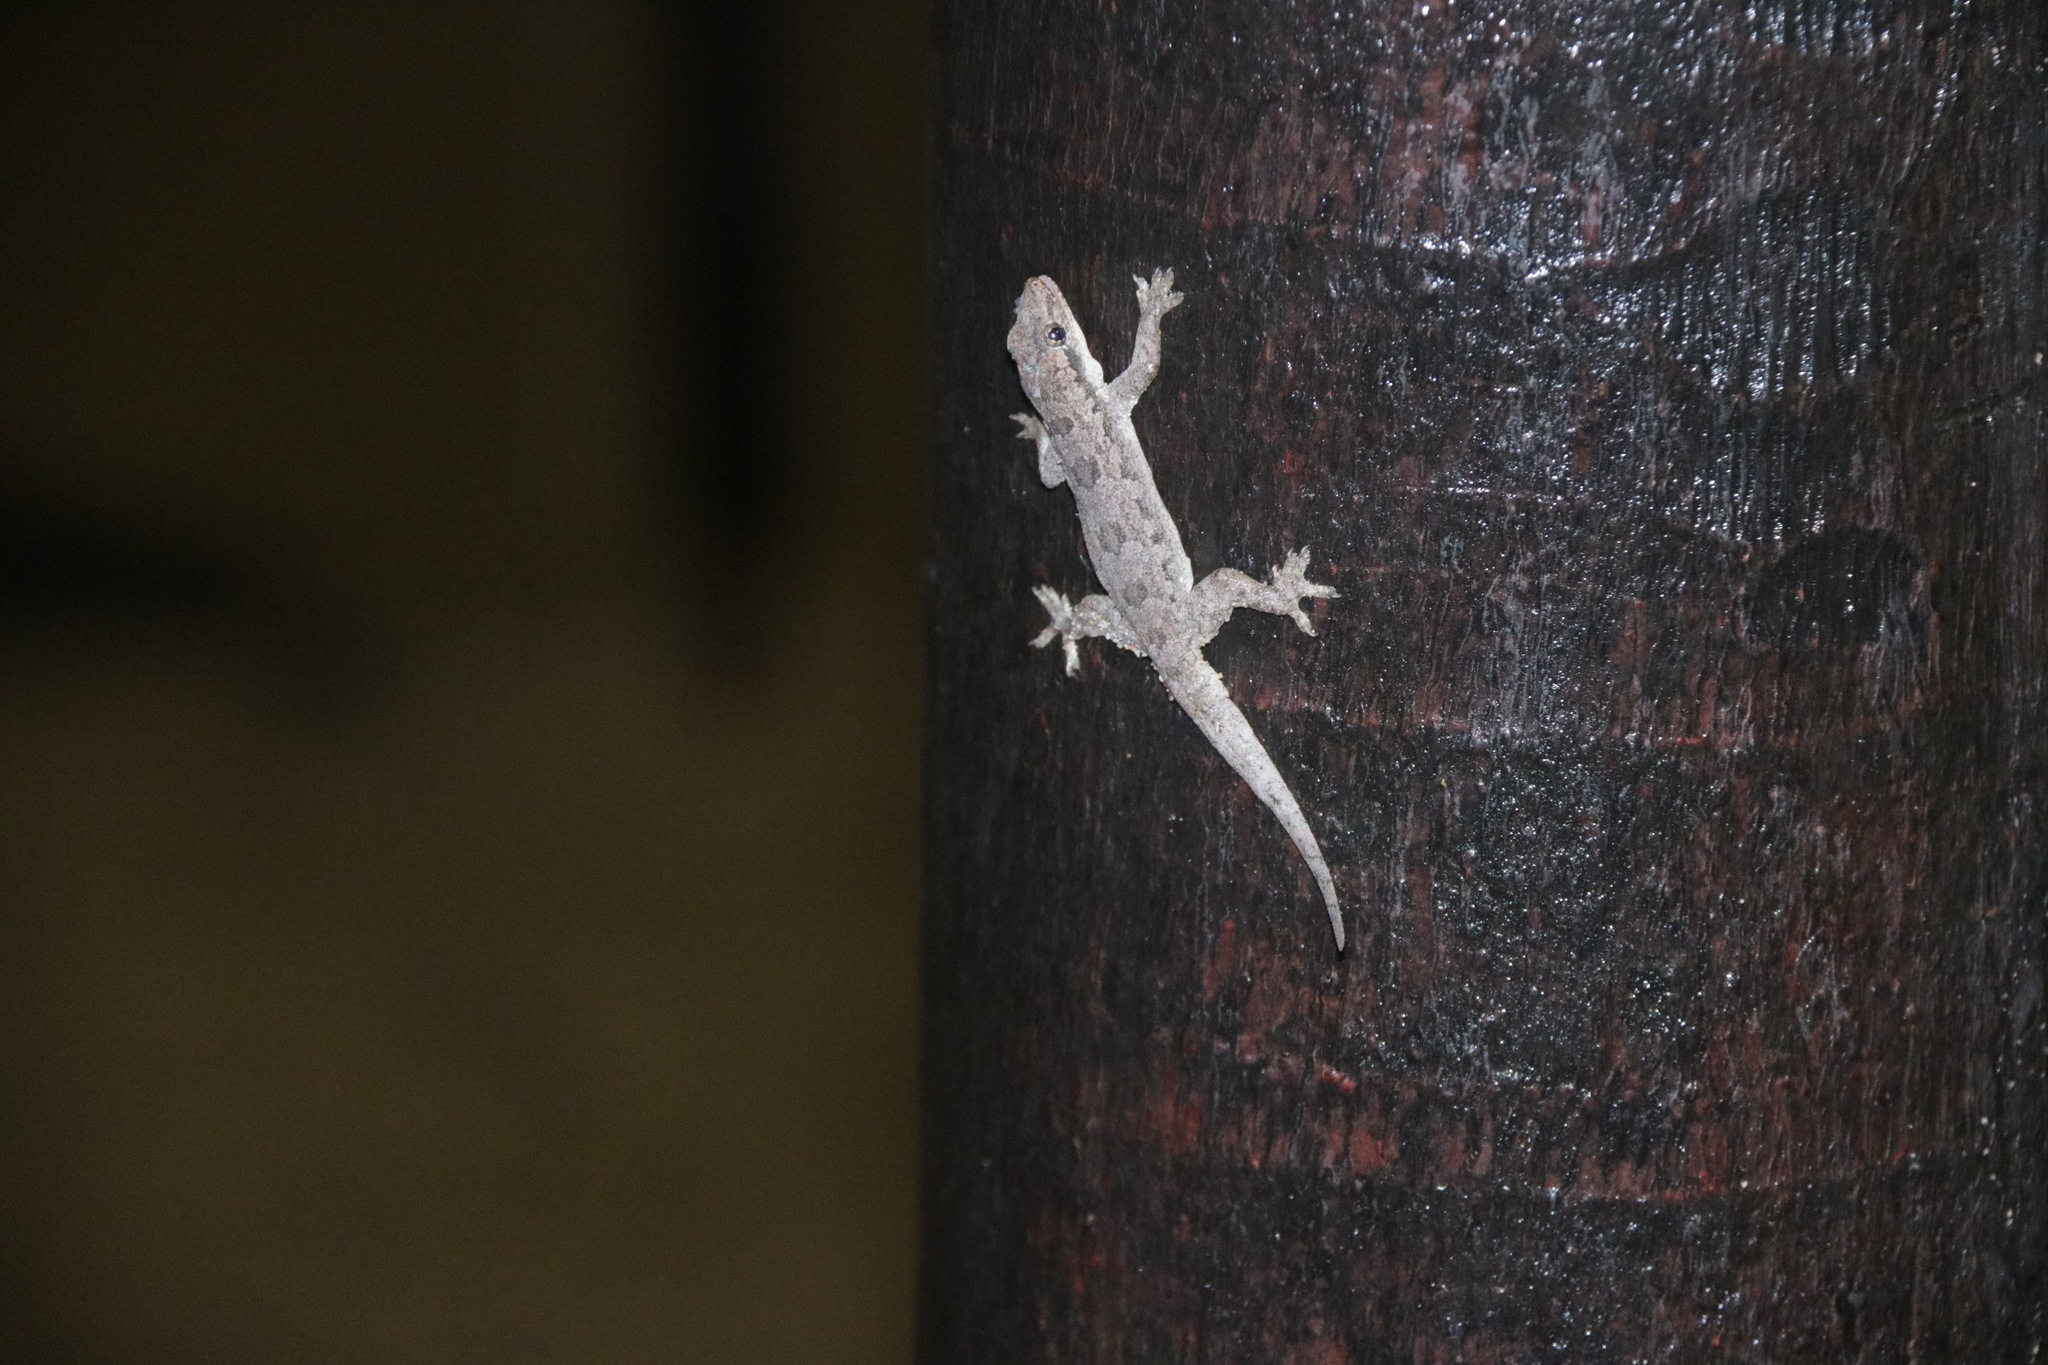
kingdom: Animalia
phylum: Chordata
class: Squamata
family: Gekkonidae
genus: Hemidactylus
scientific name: Hemidactylus platyurus
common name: Flat-tailed house gecko
